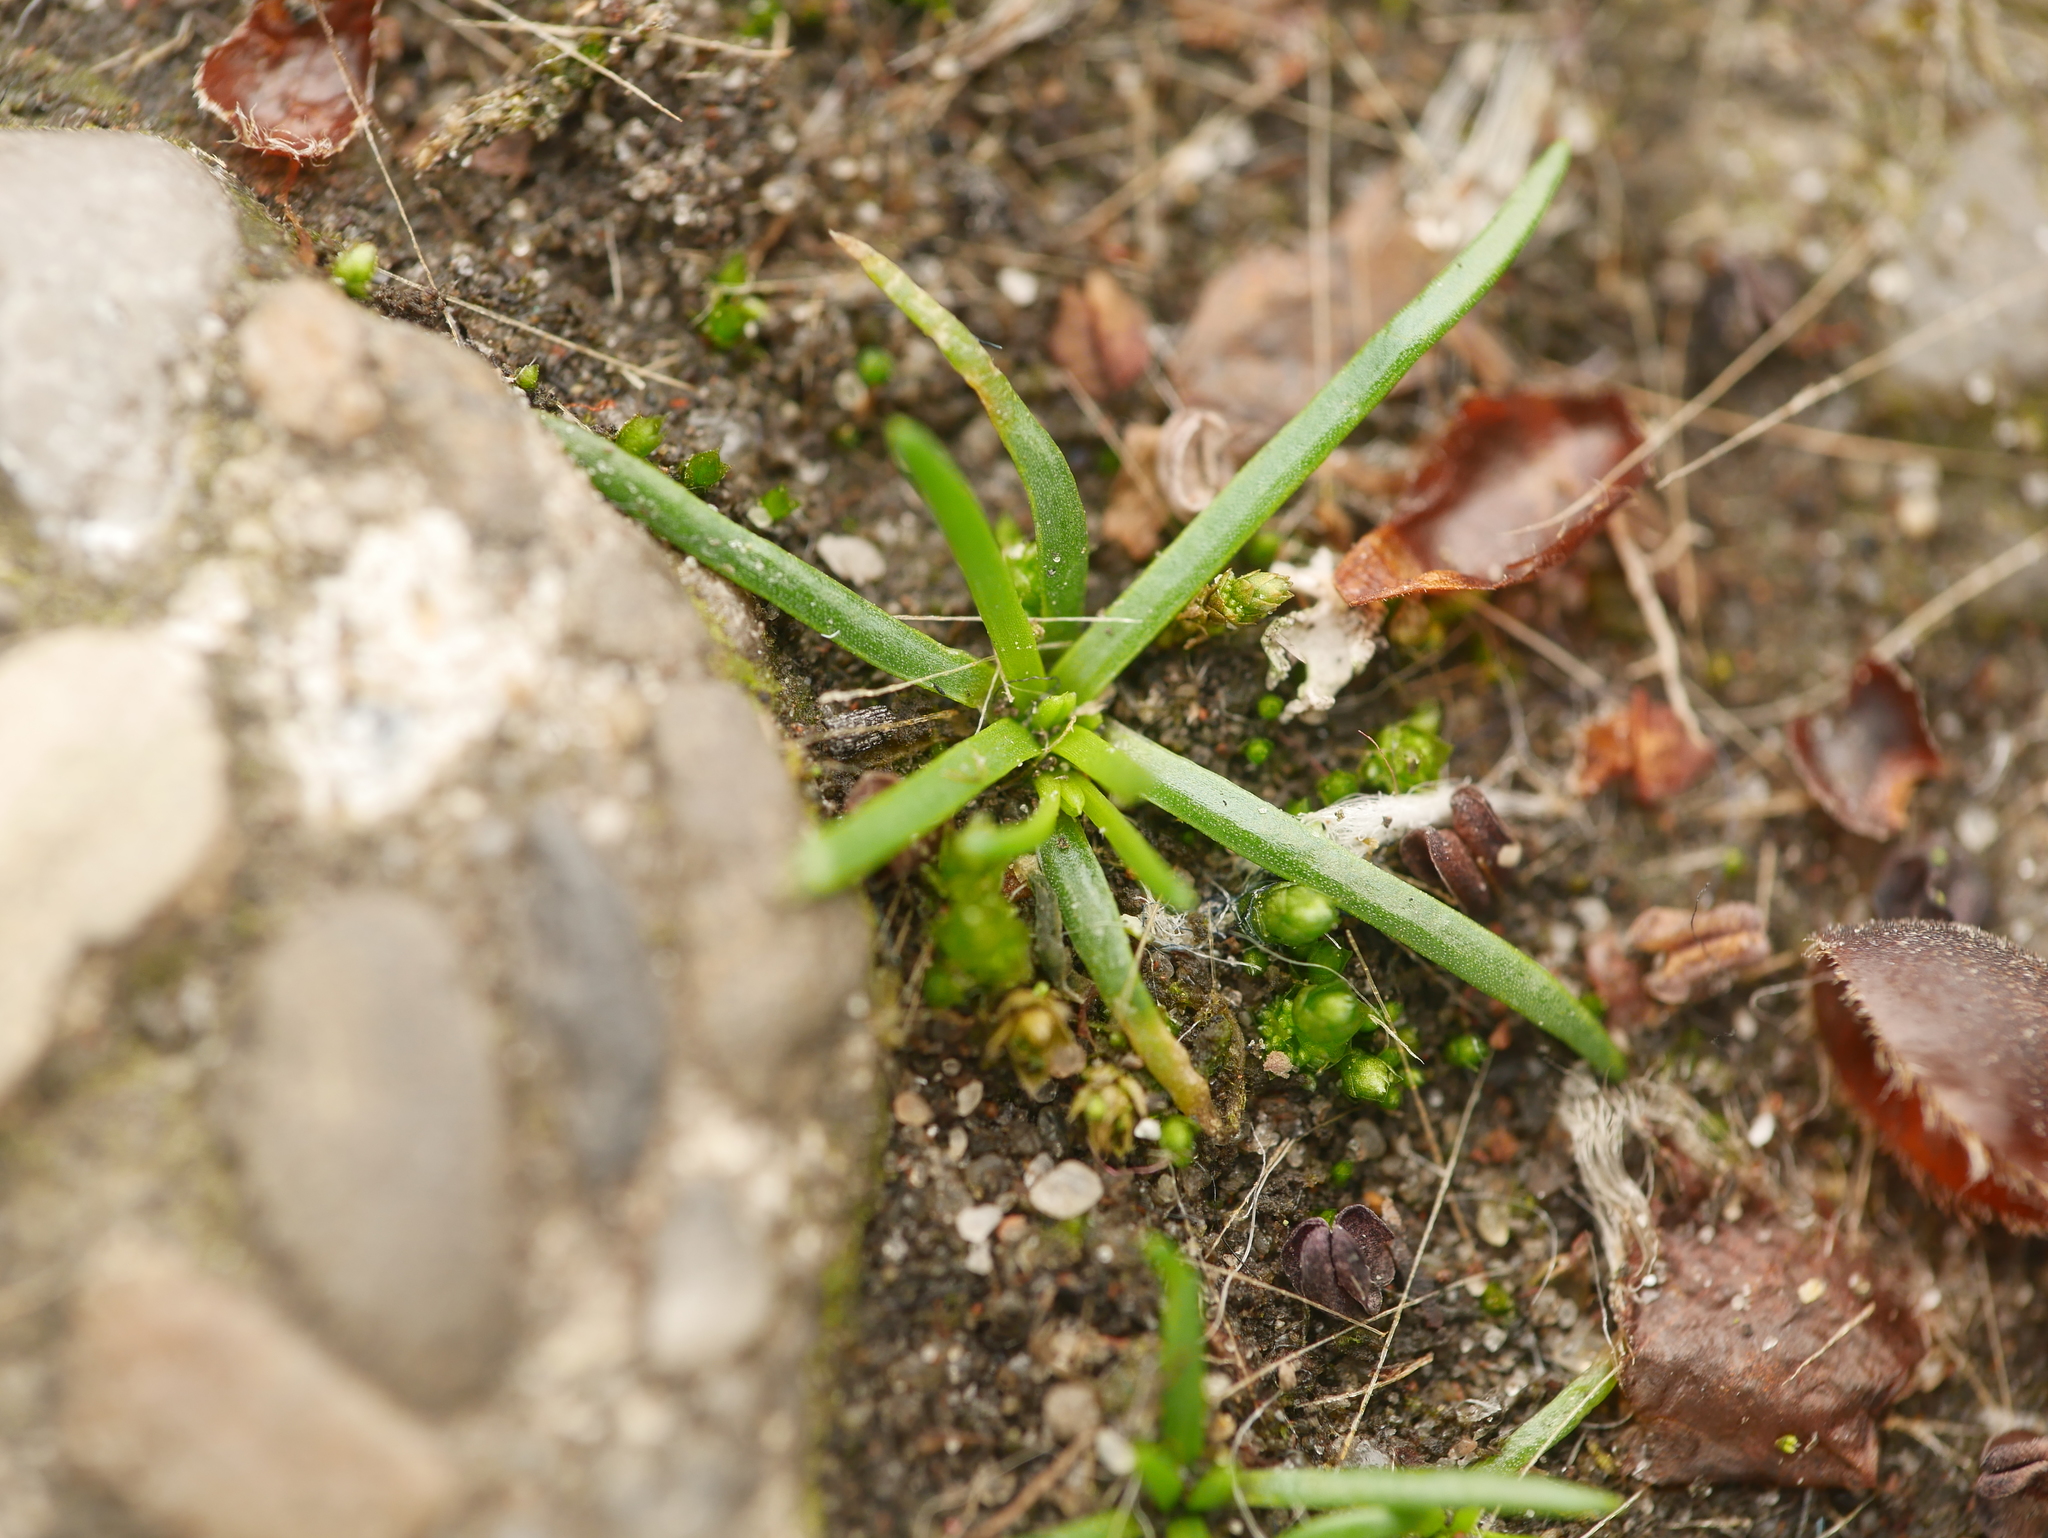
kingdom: Plantae
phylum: Tracheophyta
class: Magnoliopsida
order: Caryophyllales
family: Caryophyllaceae
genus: Sagina
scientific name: Sagina procumbens
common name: Procumbent pearlwort
